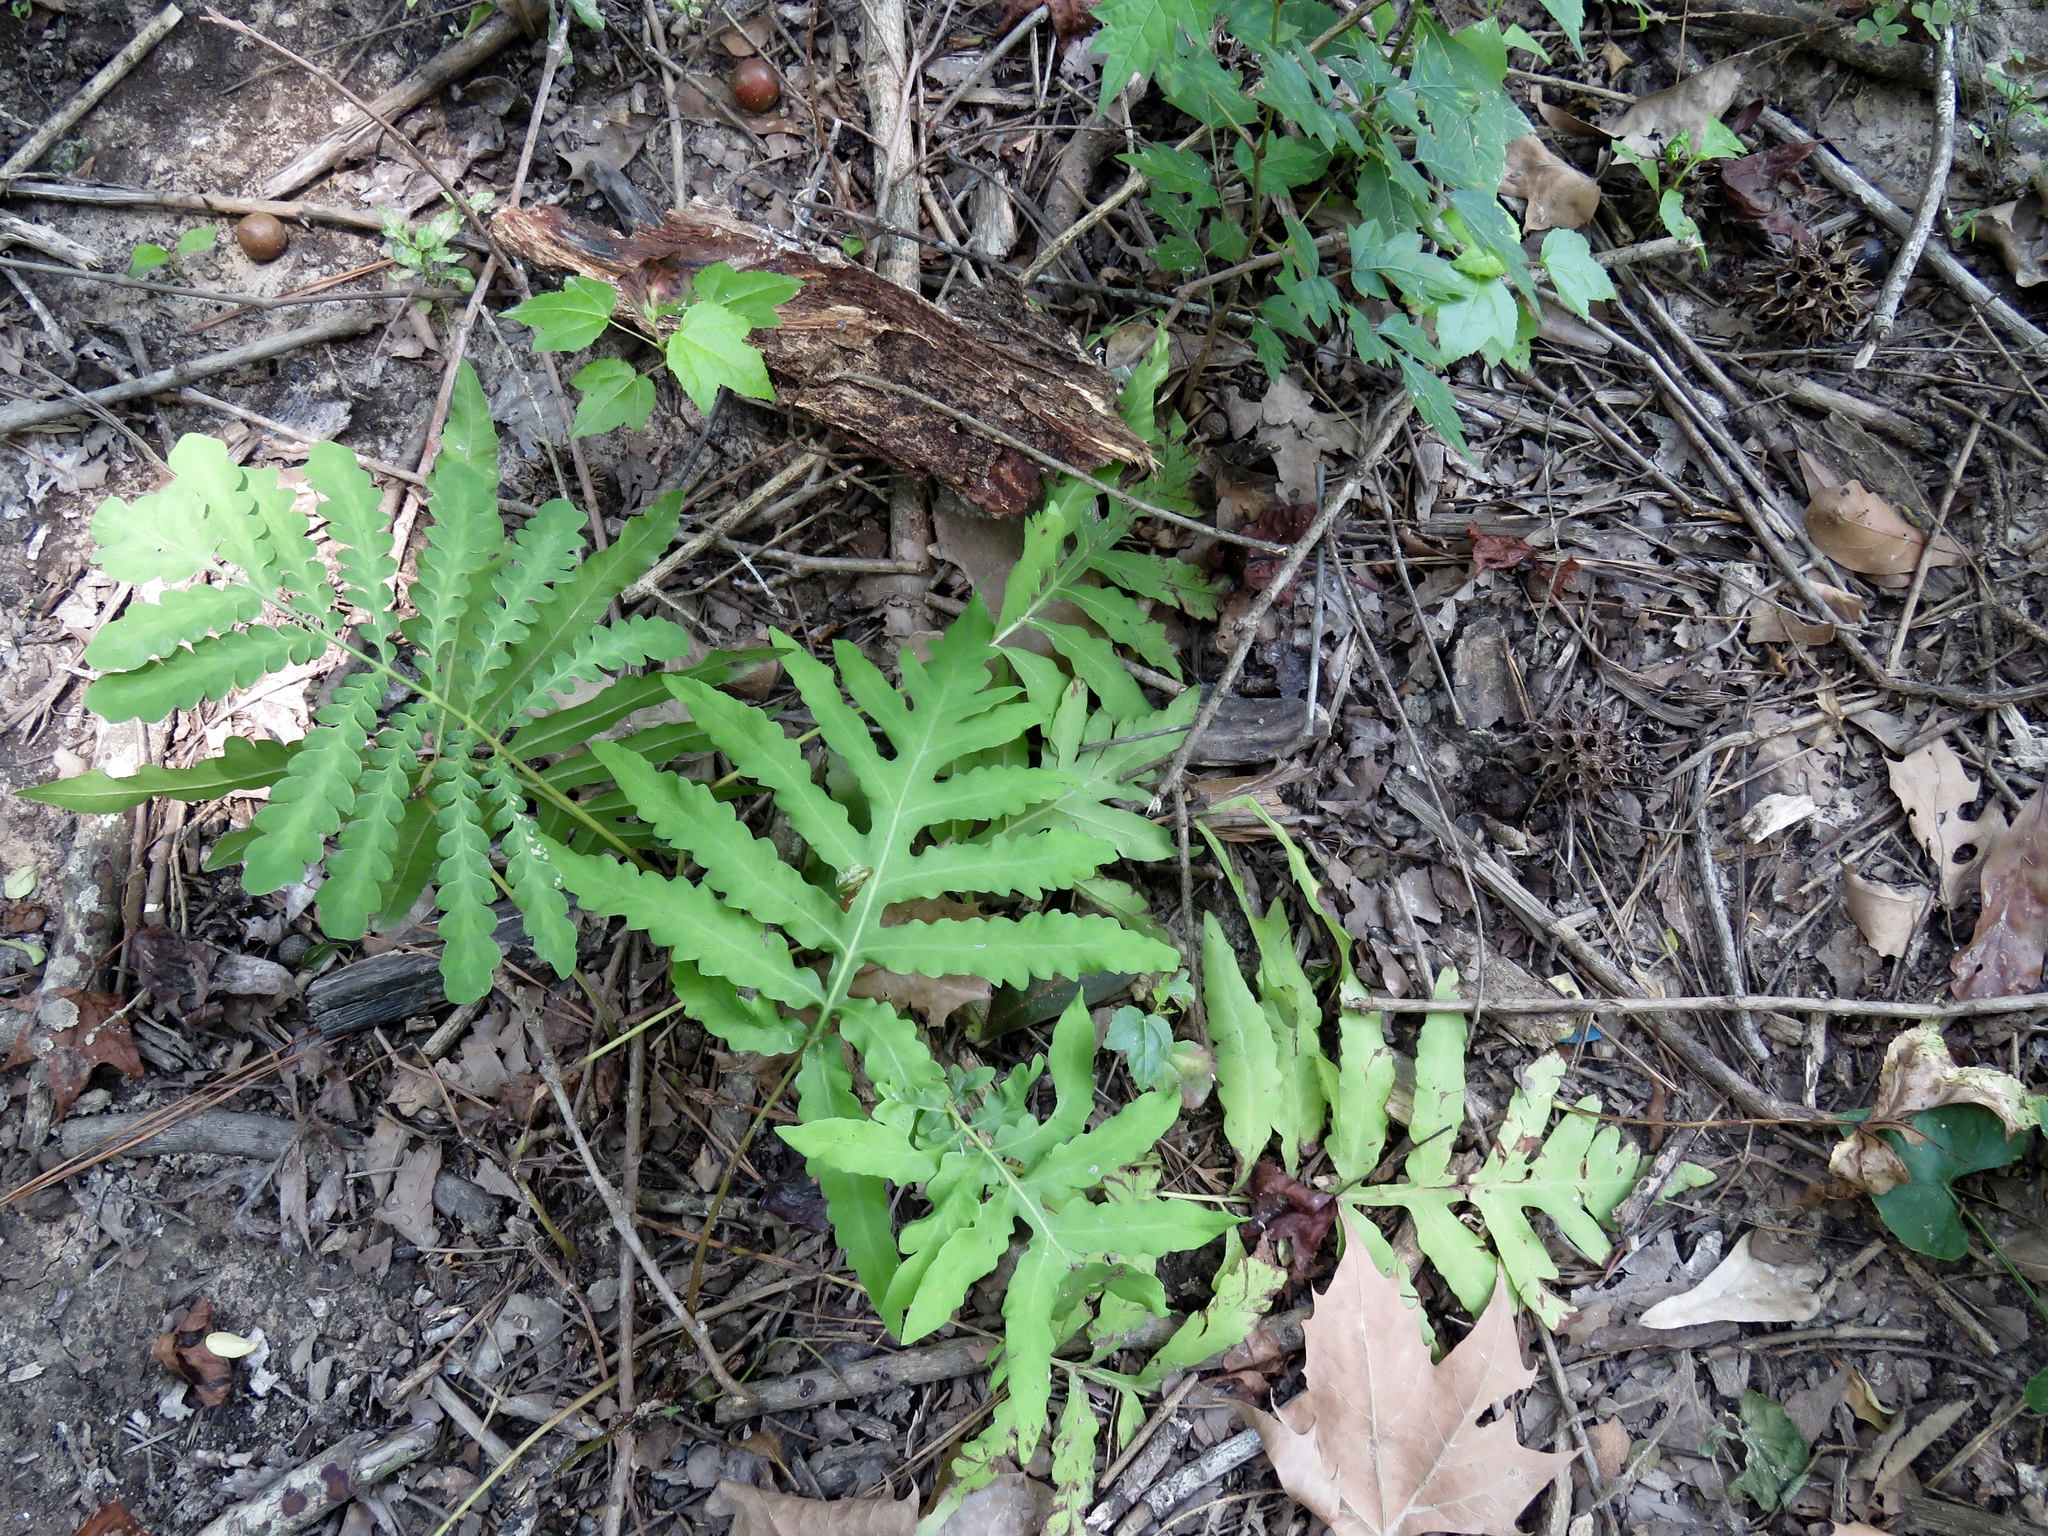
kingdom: Plantae
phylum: Tracheophyta
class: Polypodiopsida
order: Polypodiales
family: Onocleaceae
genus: Onoclea
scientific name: Onoclea sensibilis
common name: Sensitive fern
